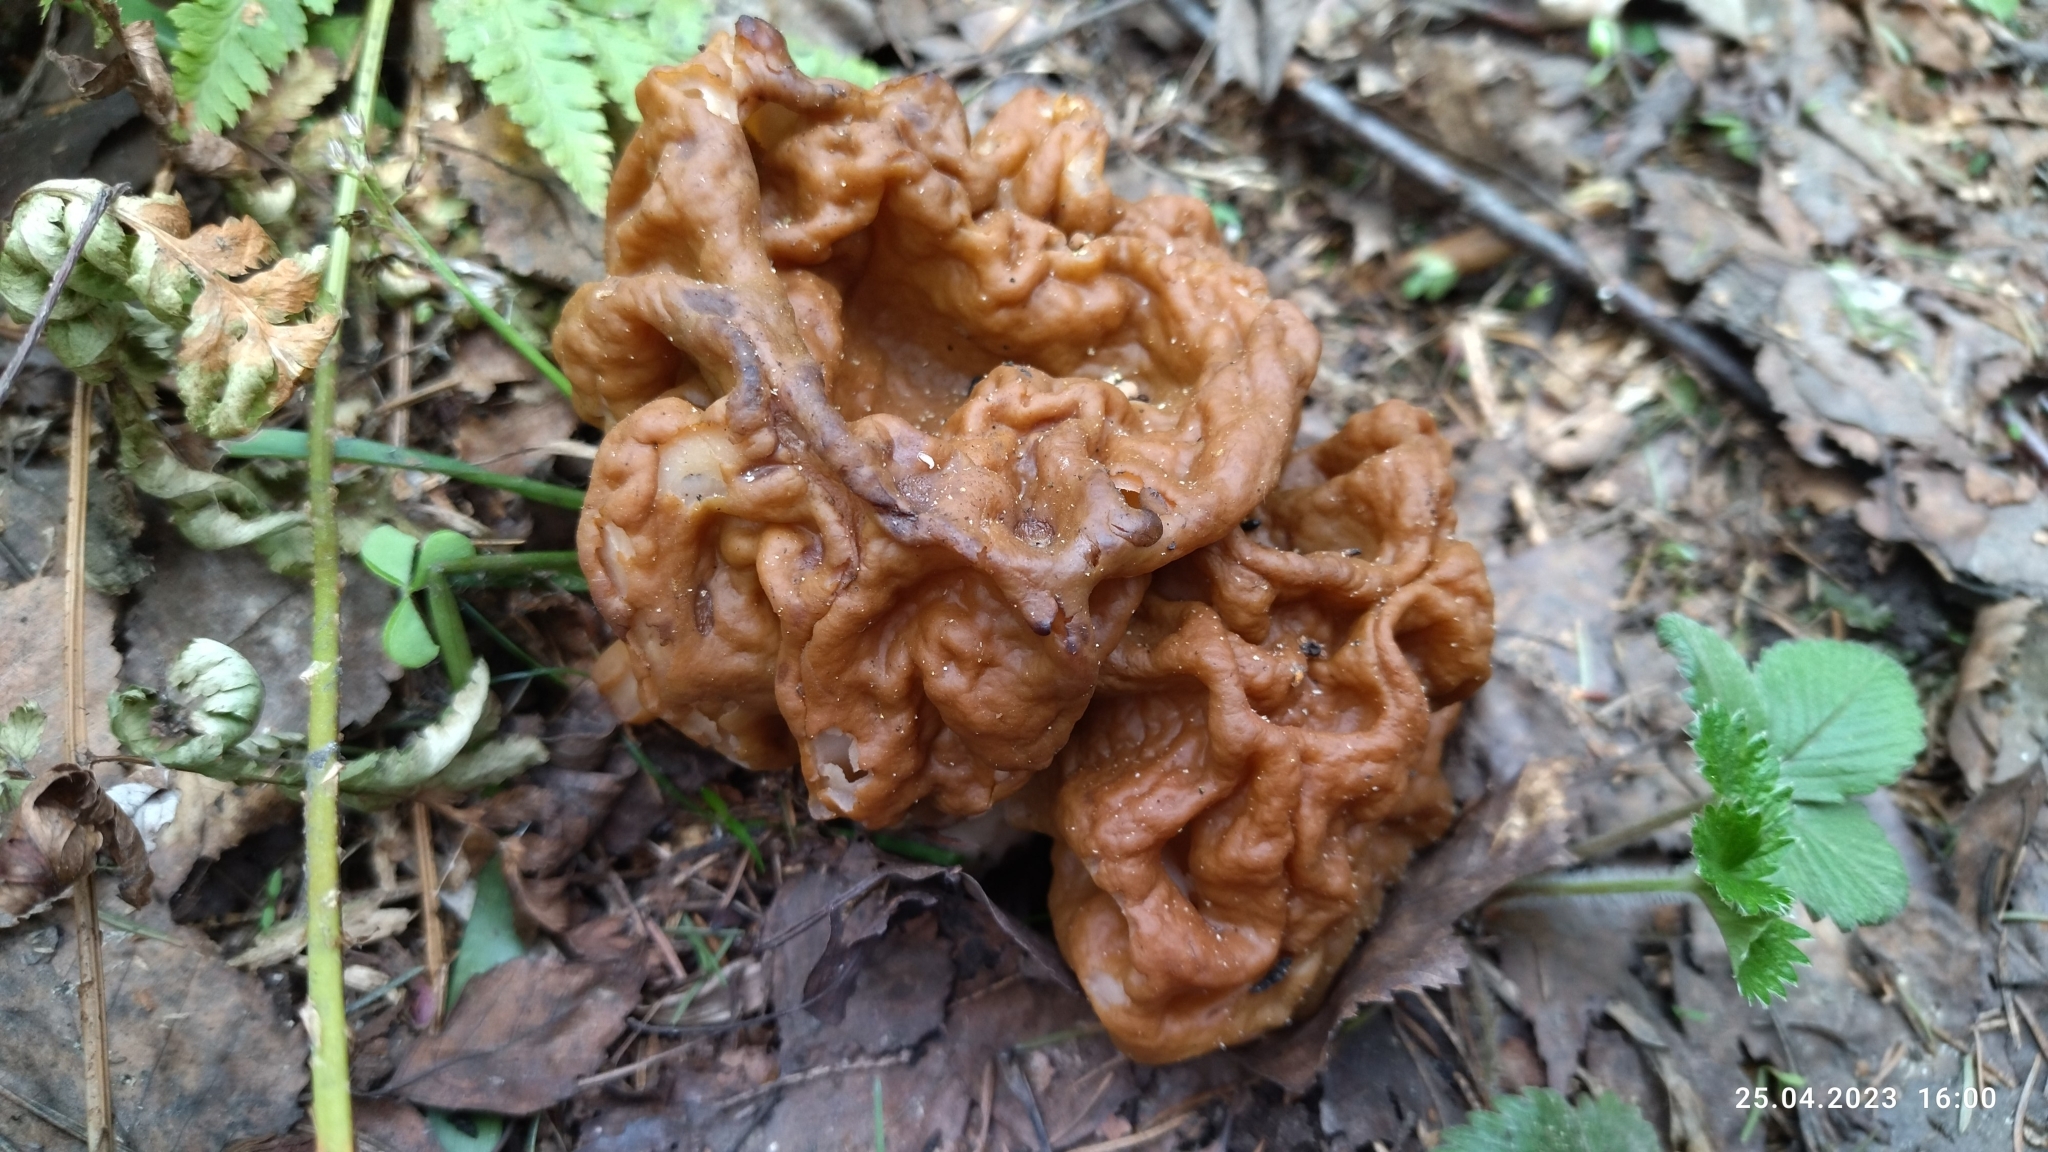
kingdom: Fungi
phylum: Ascomycota
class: Pezizomycetes
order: Pezizales
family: Discinaceae
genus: Gyromitra
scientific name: Gyromitra gigas
